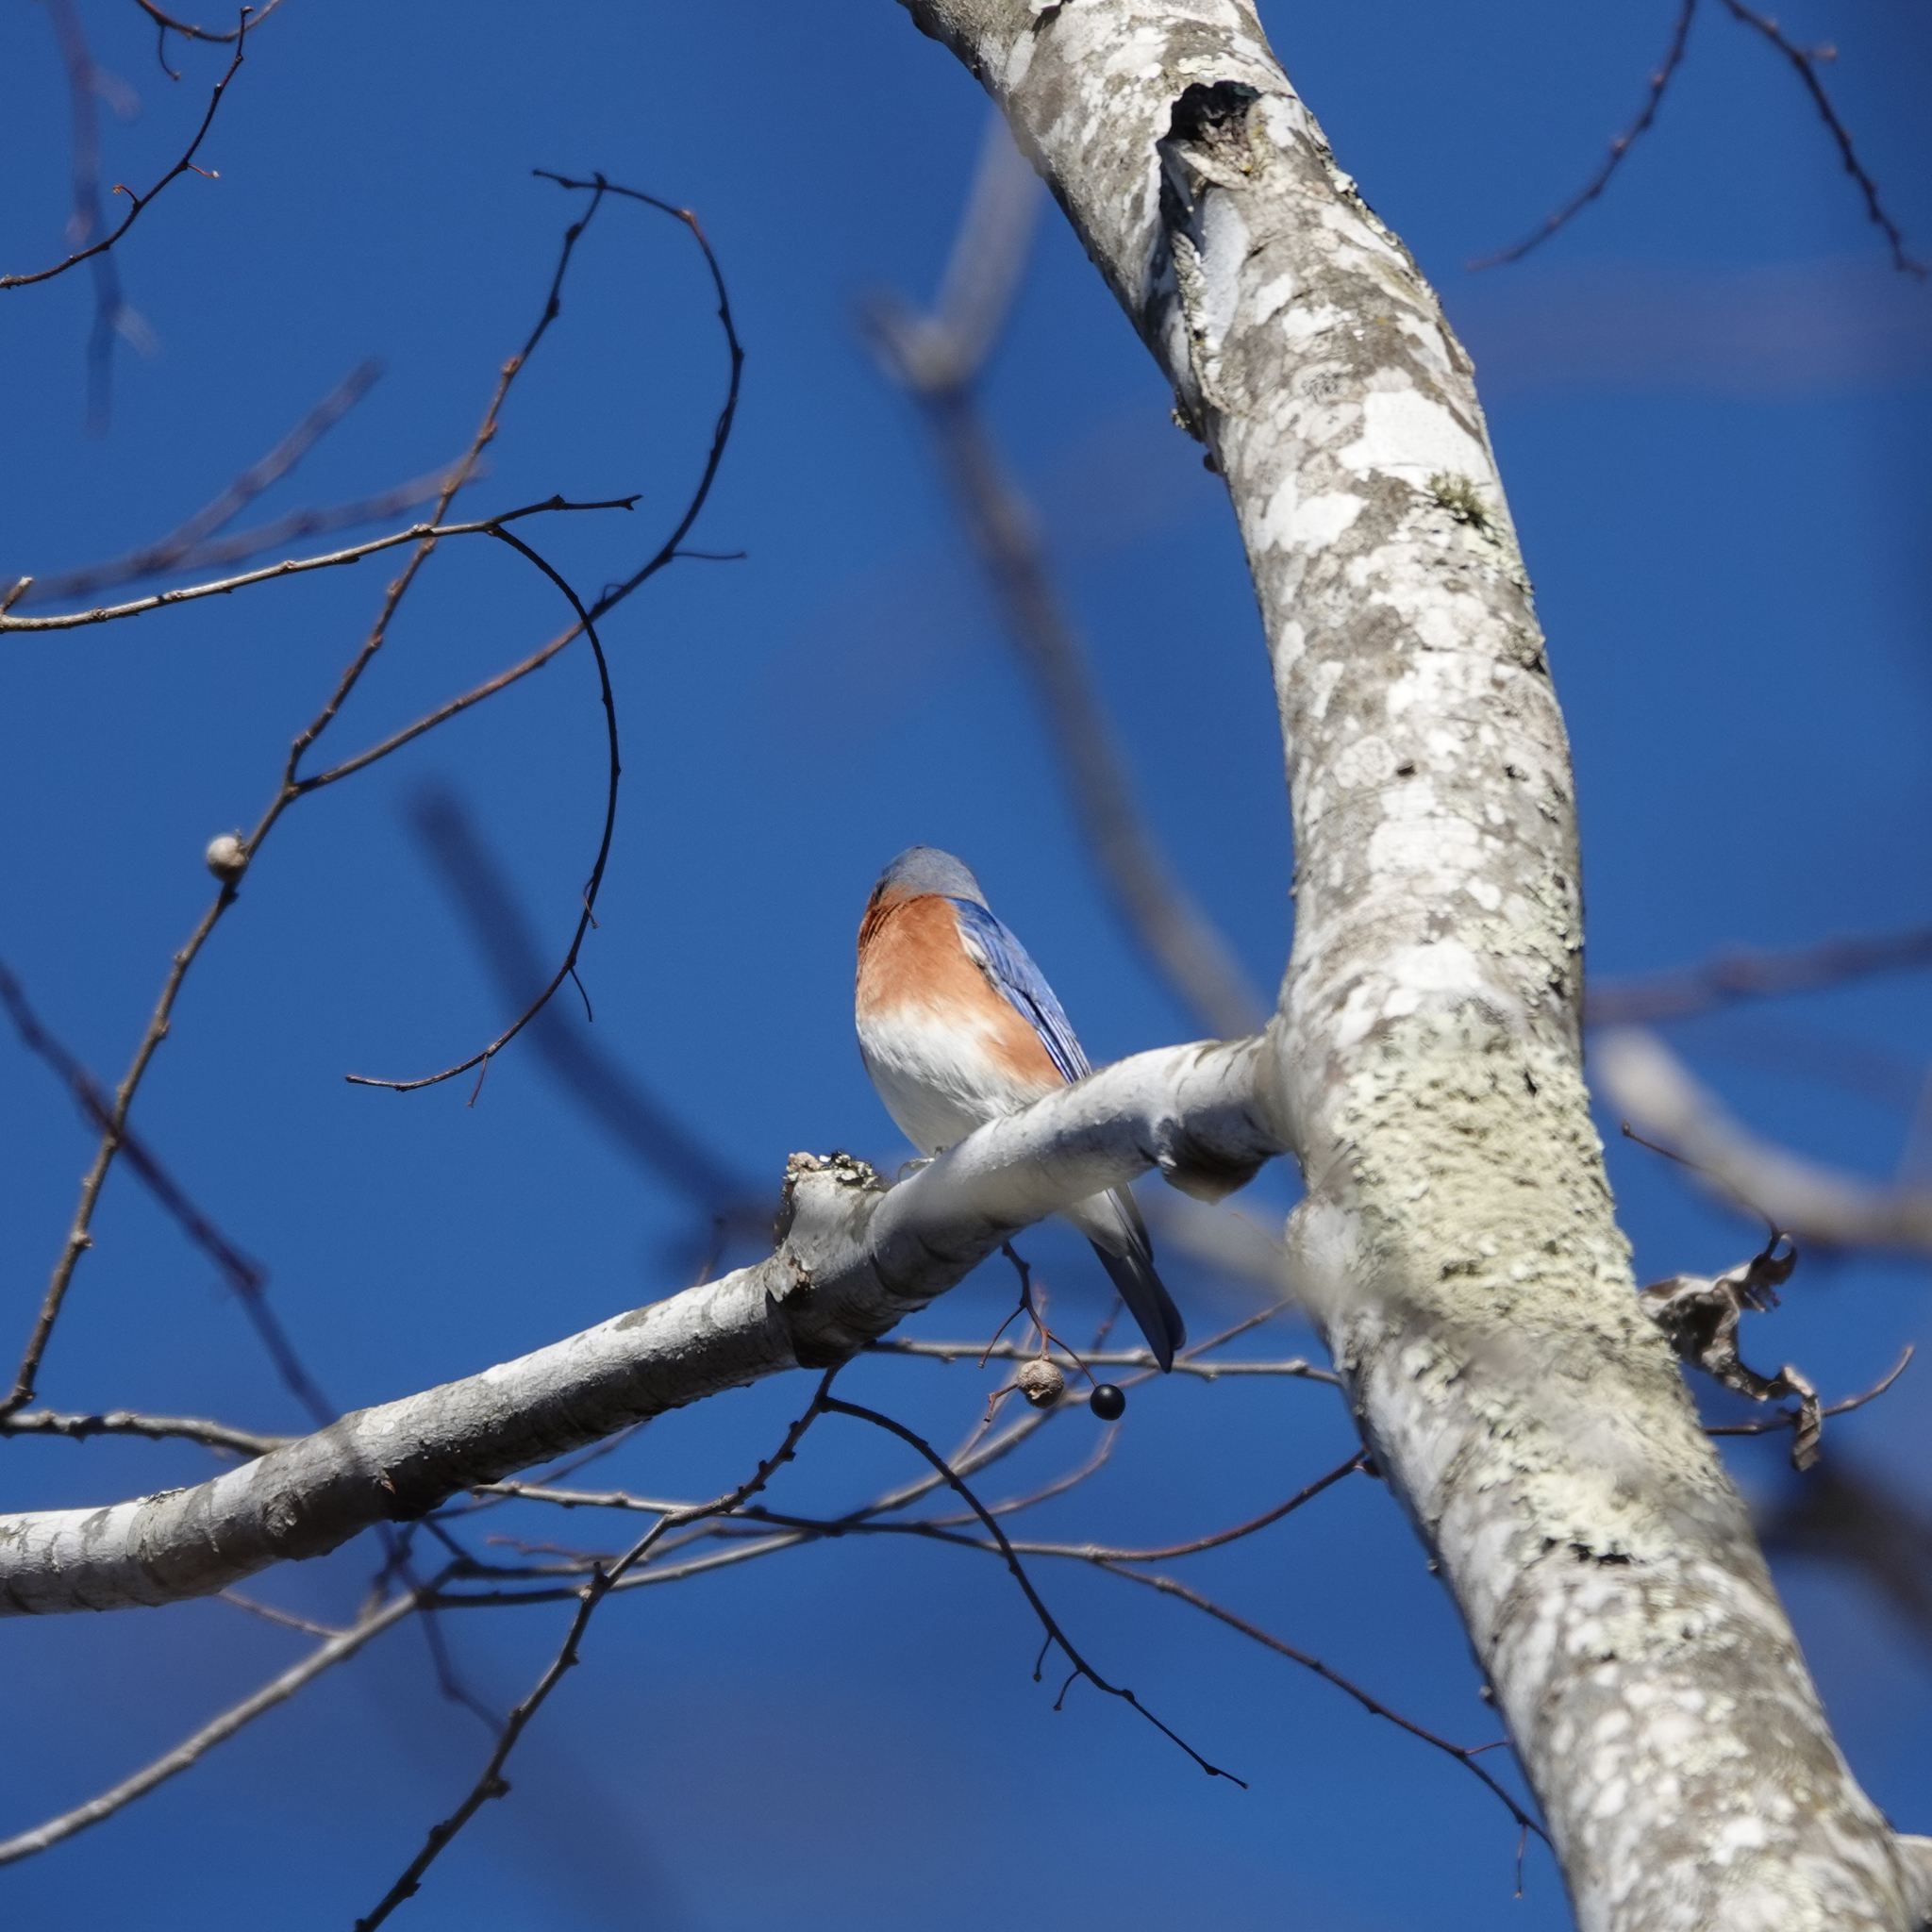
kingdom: Animalia
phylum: Chordata
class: Aves
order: Passeriformes
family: Turdidae
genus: Sialia
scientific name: Sialia sialis
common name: Eastern bluebird
